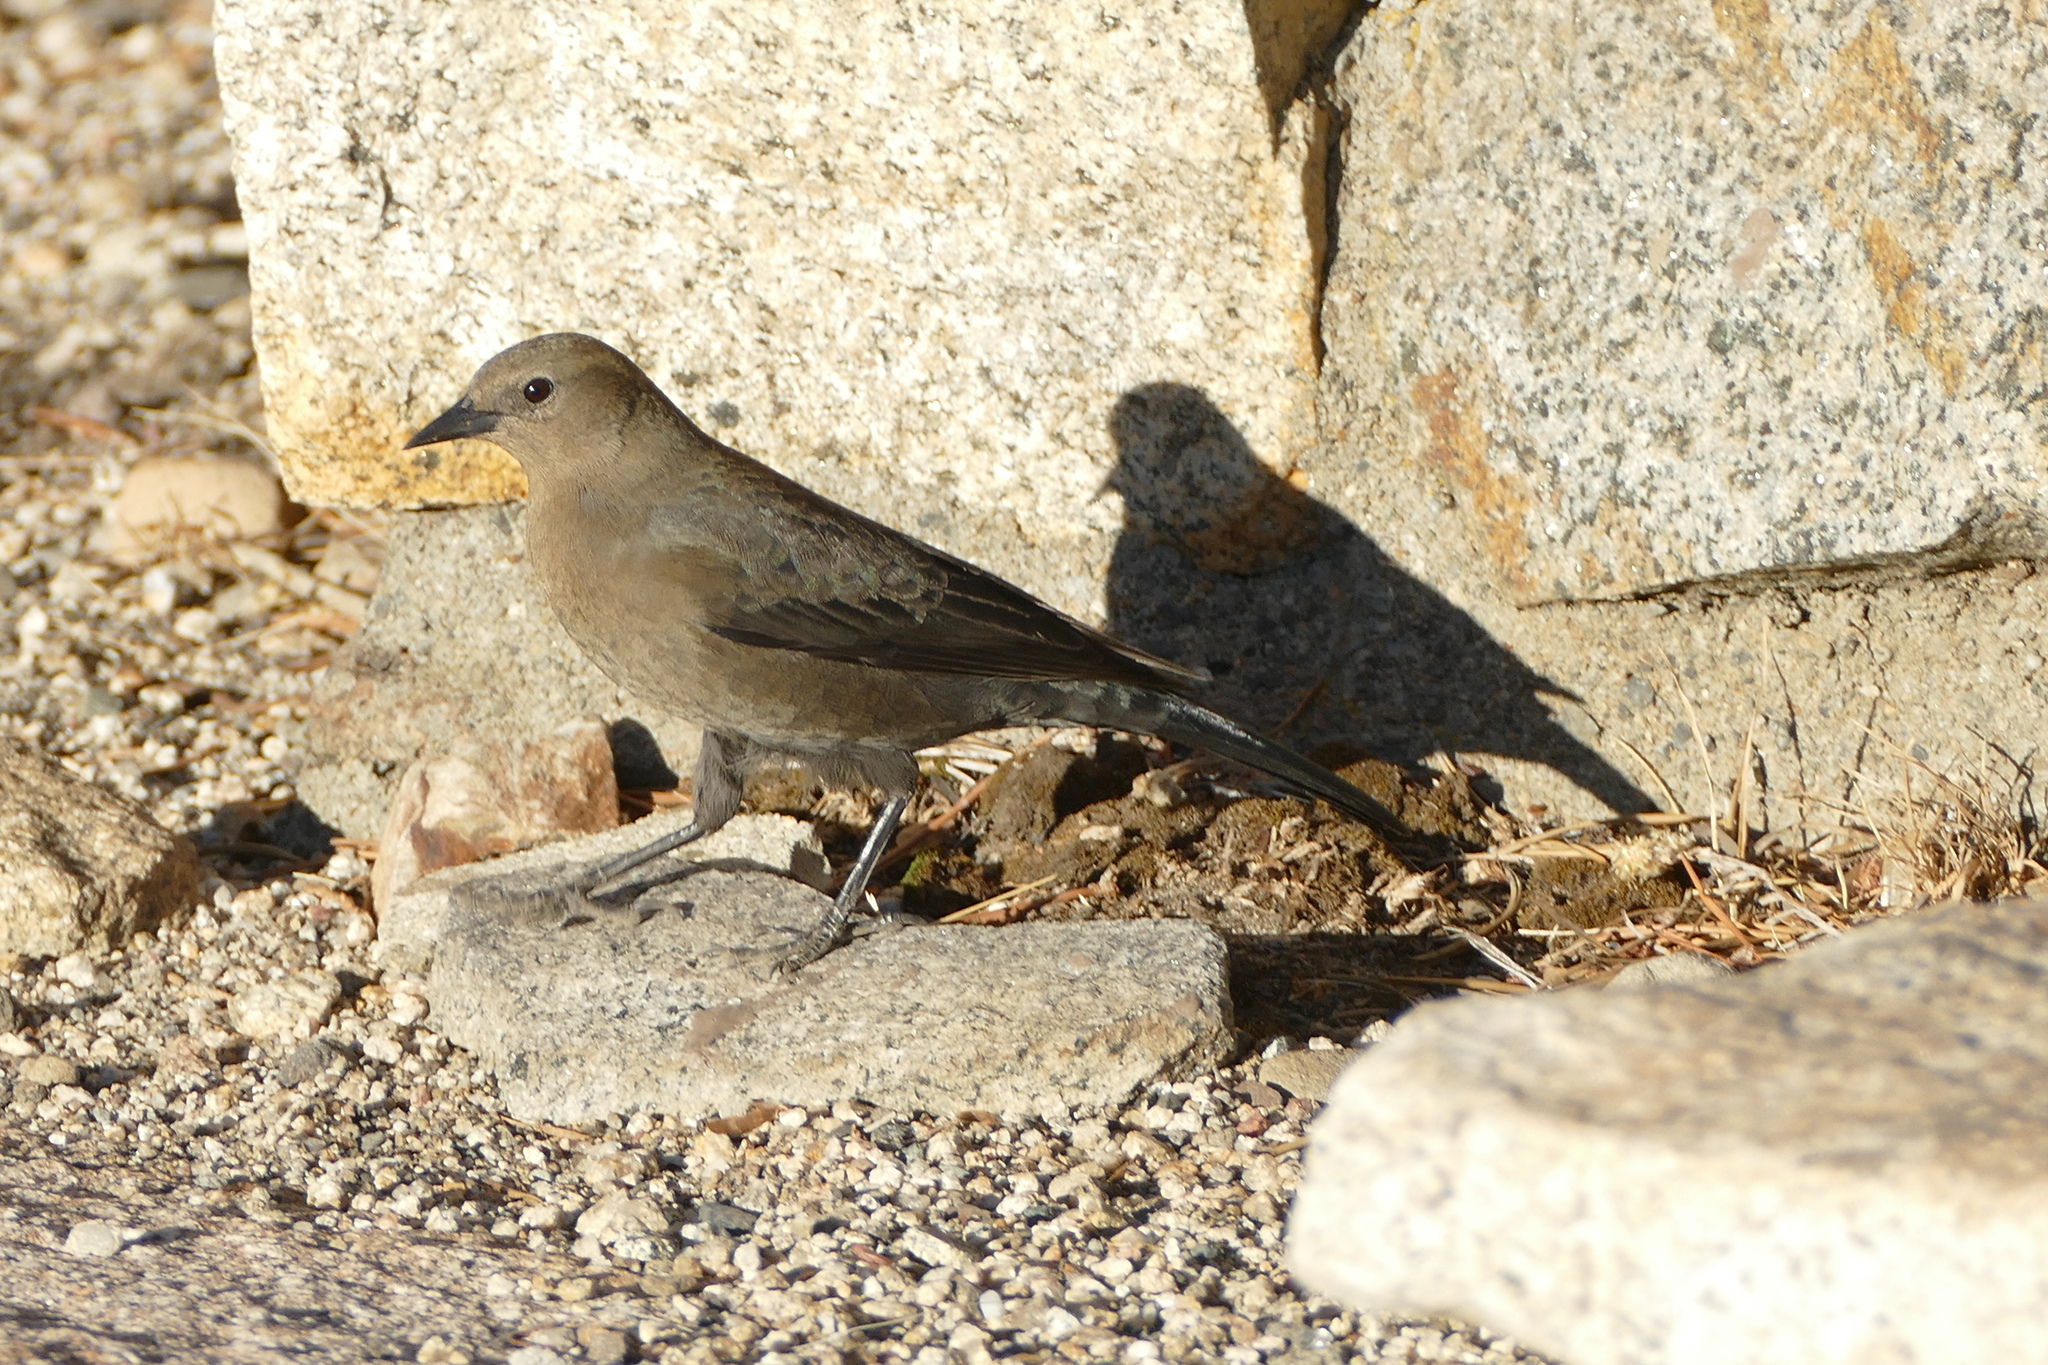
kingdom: Animalia
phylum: Chordata
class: Aves
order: Passeriformes
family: Icteridae
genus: Euphagus
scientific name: Euphagus cyanocephalus
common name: Brewer's blackbird
